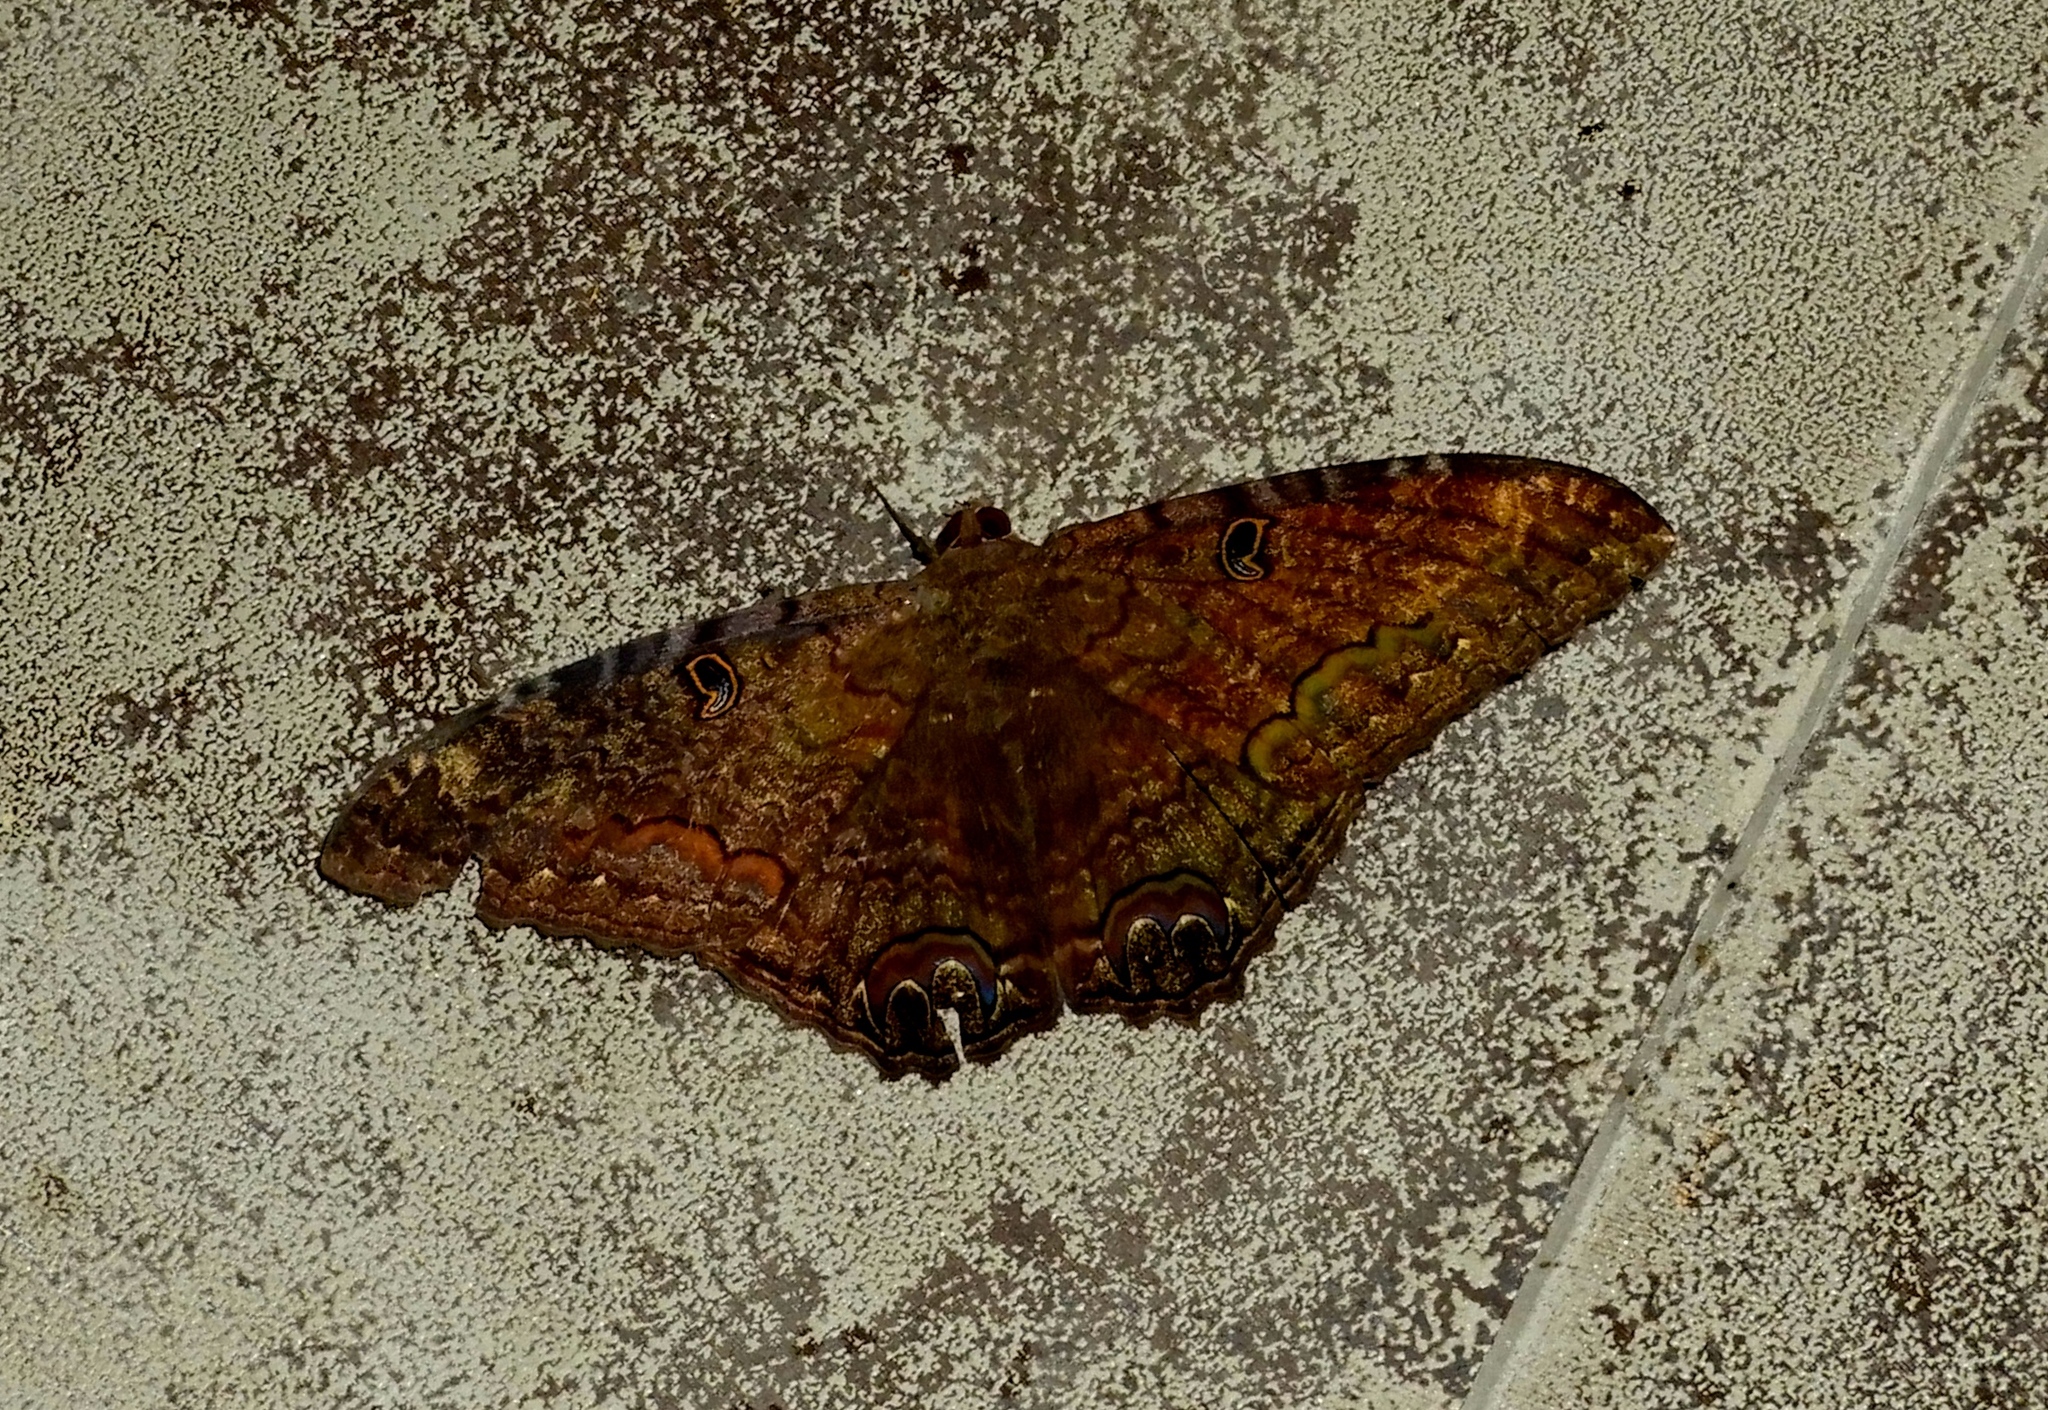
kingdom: Animalia
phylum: Arthropoda
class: Insecta
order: Lepidoptera
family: Erebidae
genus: Ascalapha
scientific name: Ascalapha odorata
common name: Black witch
